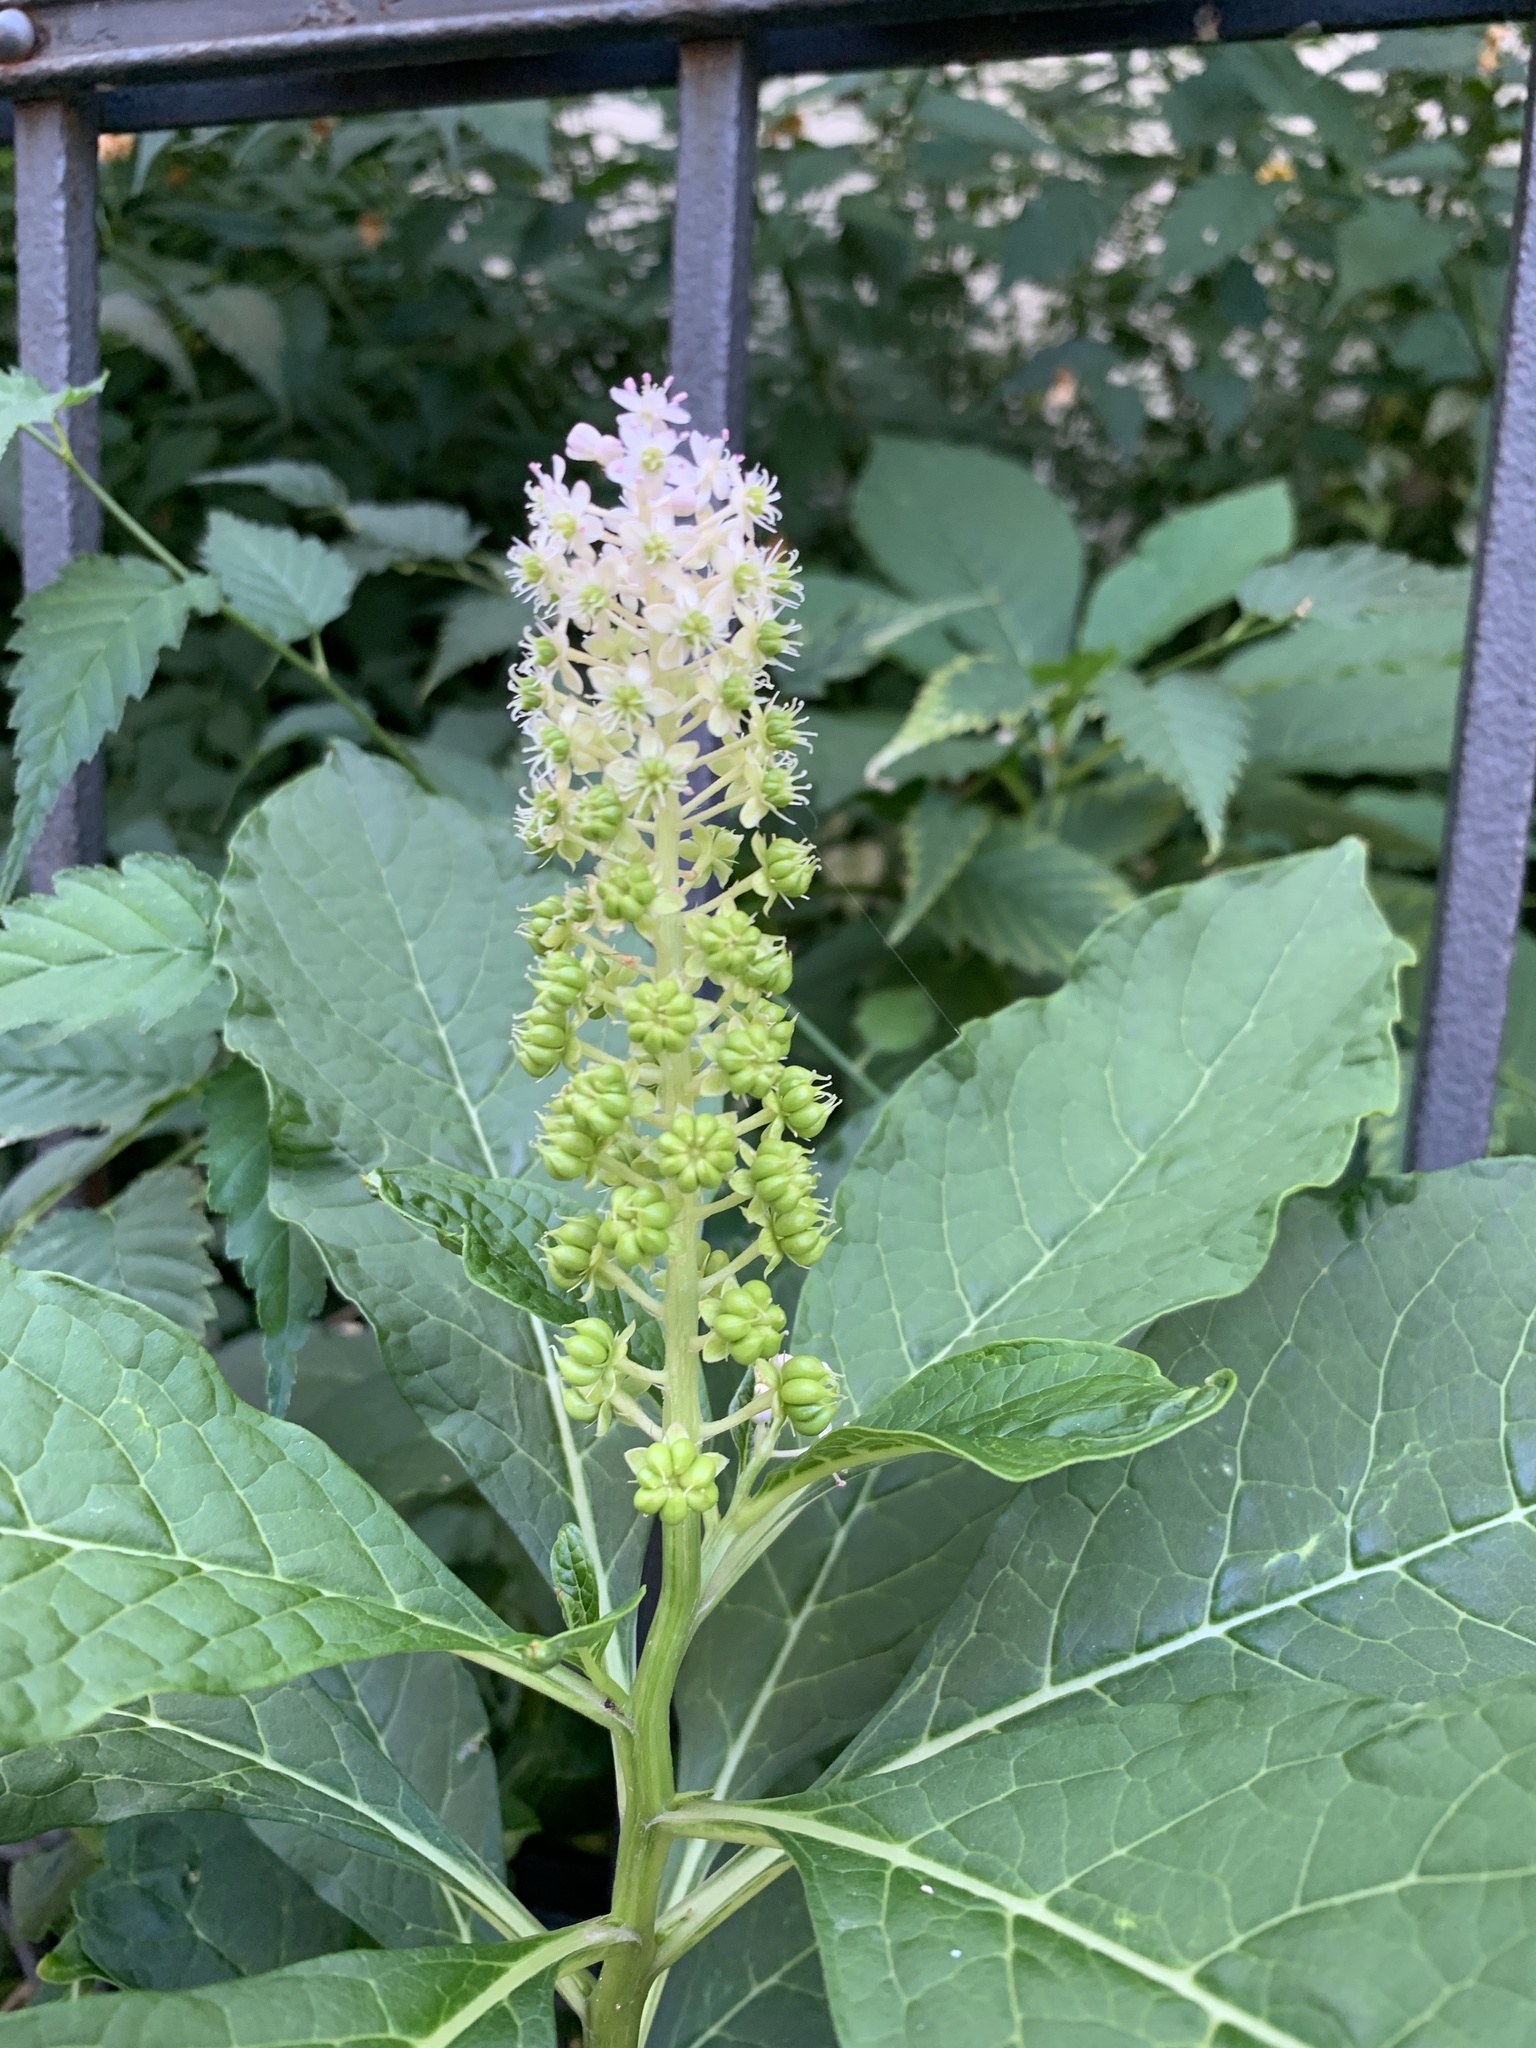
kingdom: Plantae
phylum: Tracheophyta
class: Magnoliopsida
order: Caryophyllales
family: Phytolaccaceae
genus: Phytolacca
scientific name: Phytolacca acinosa
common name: Indian pokeweed
